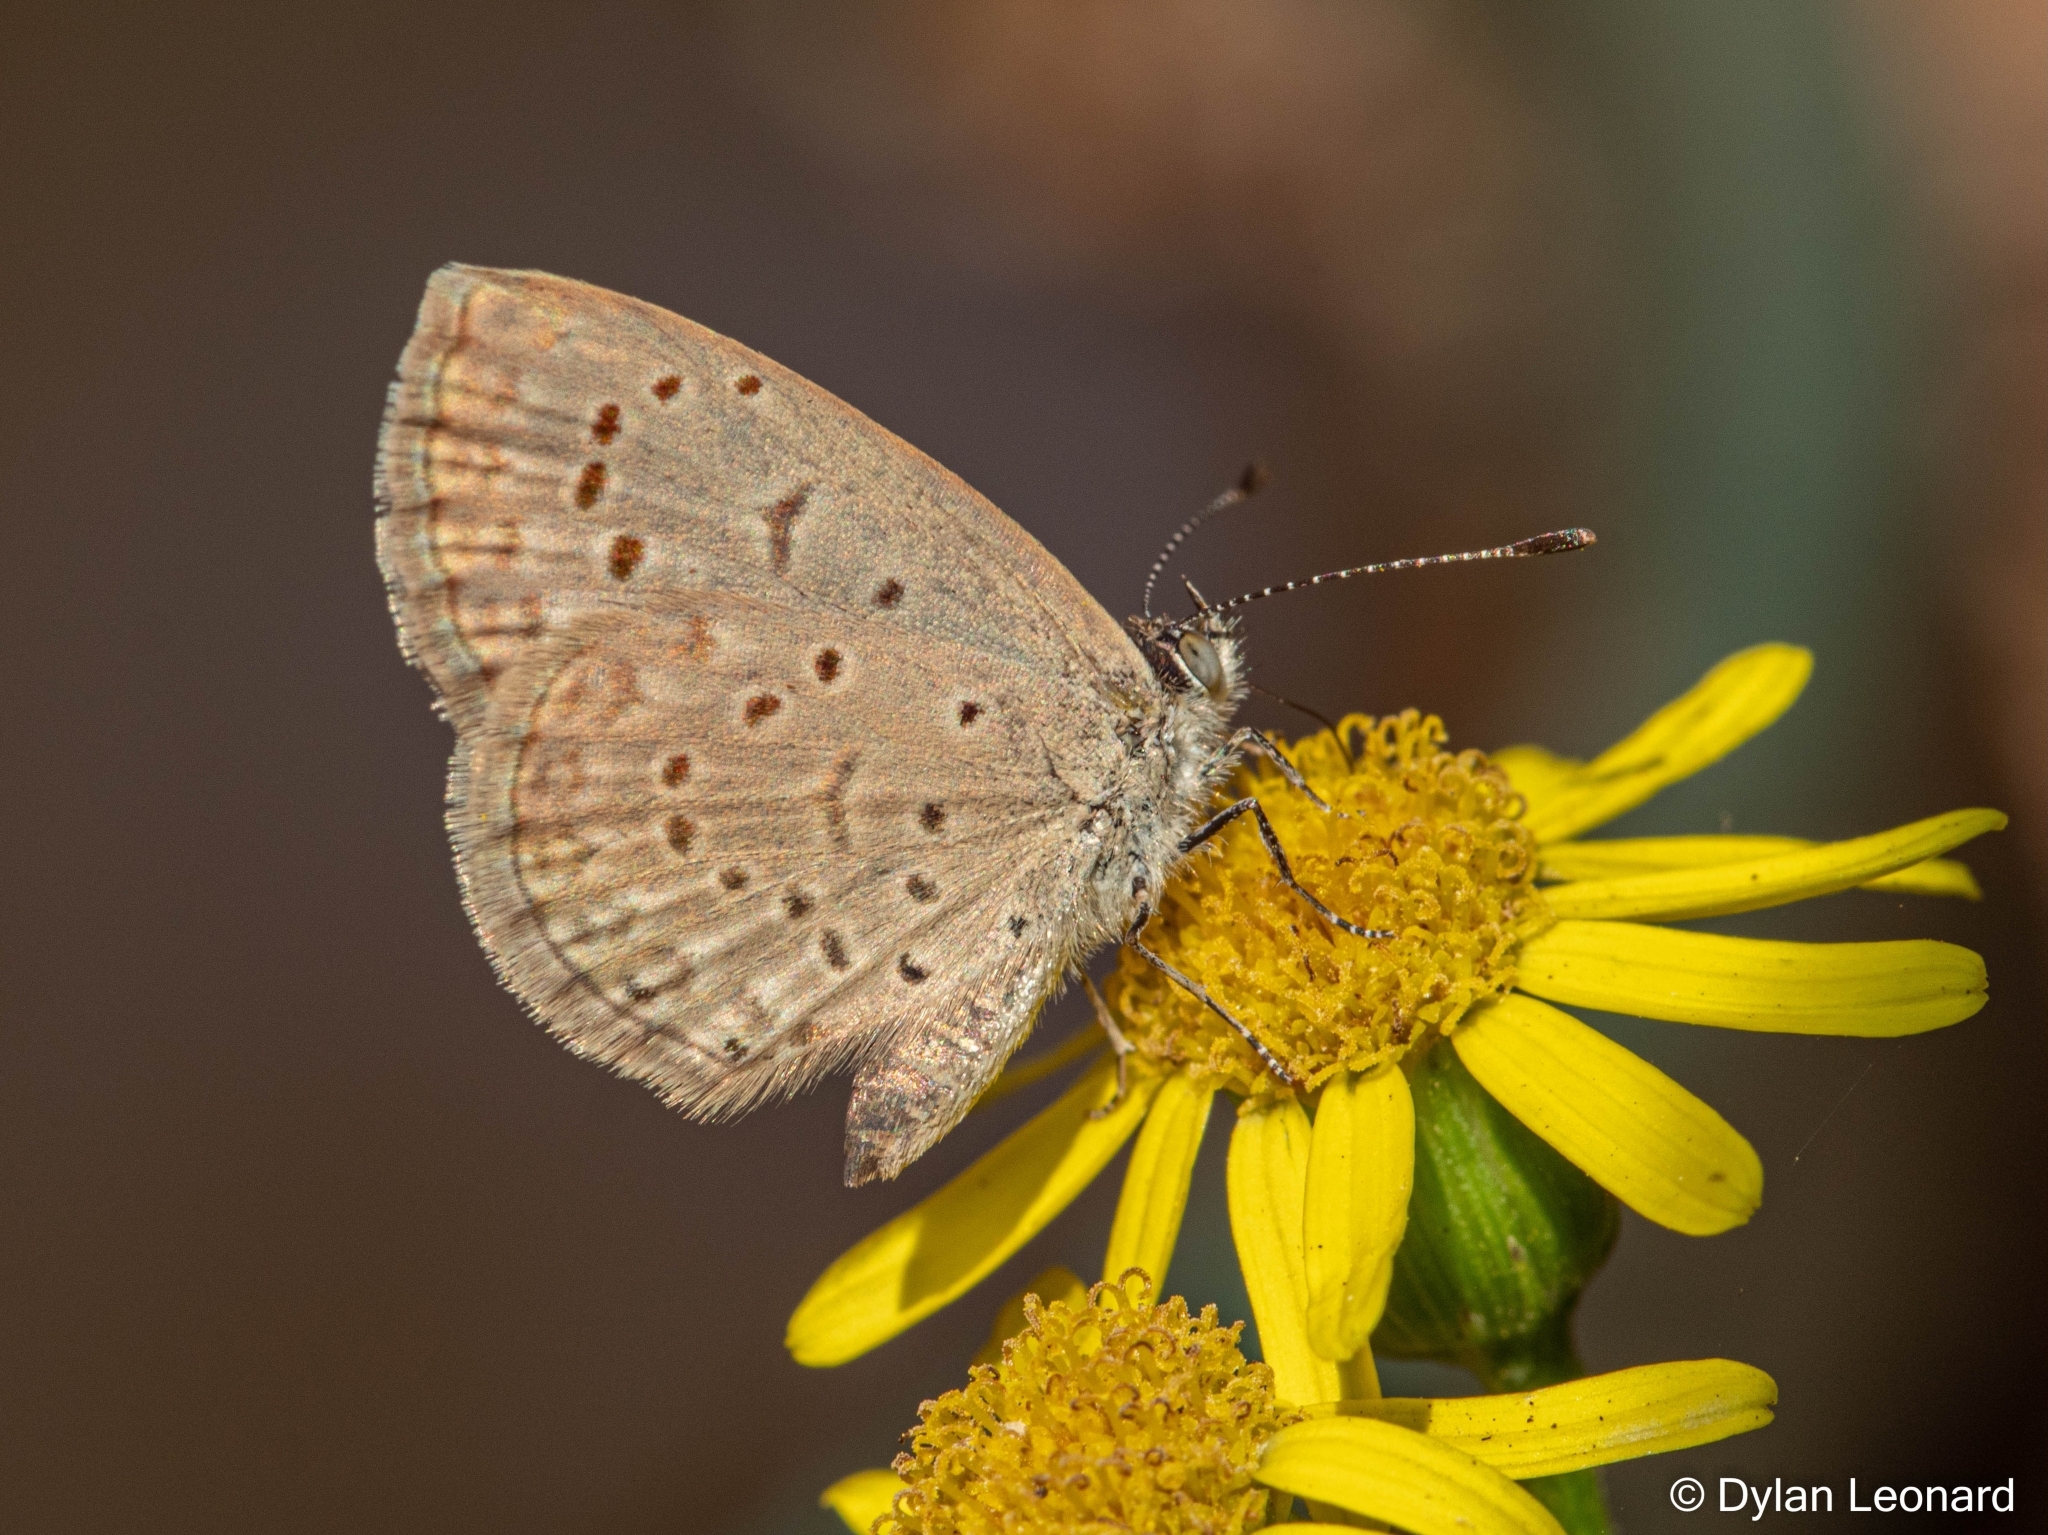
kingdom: Animalia
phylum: Arthropoda
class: Insecta
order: Lepidoptera
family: Lycaenidae
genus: Zizeeria
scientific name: Zizeeria knysna
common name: African grass blue
